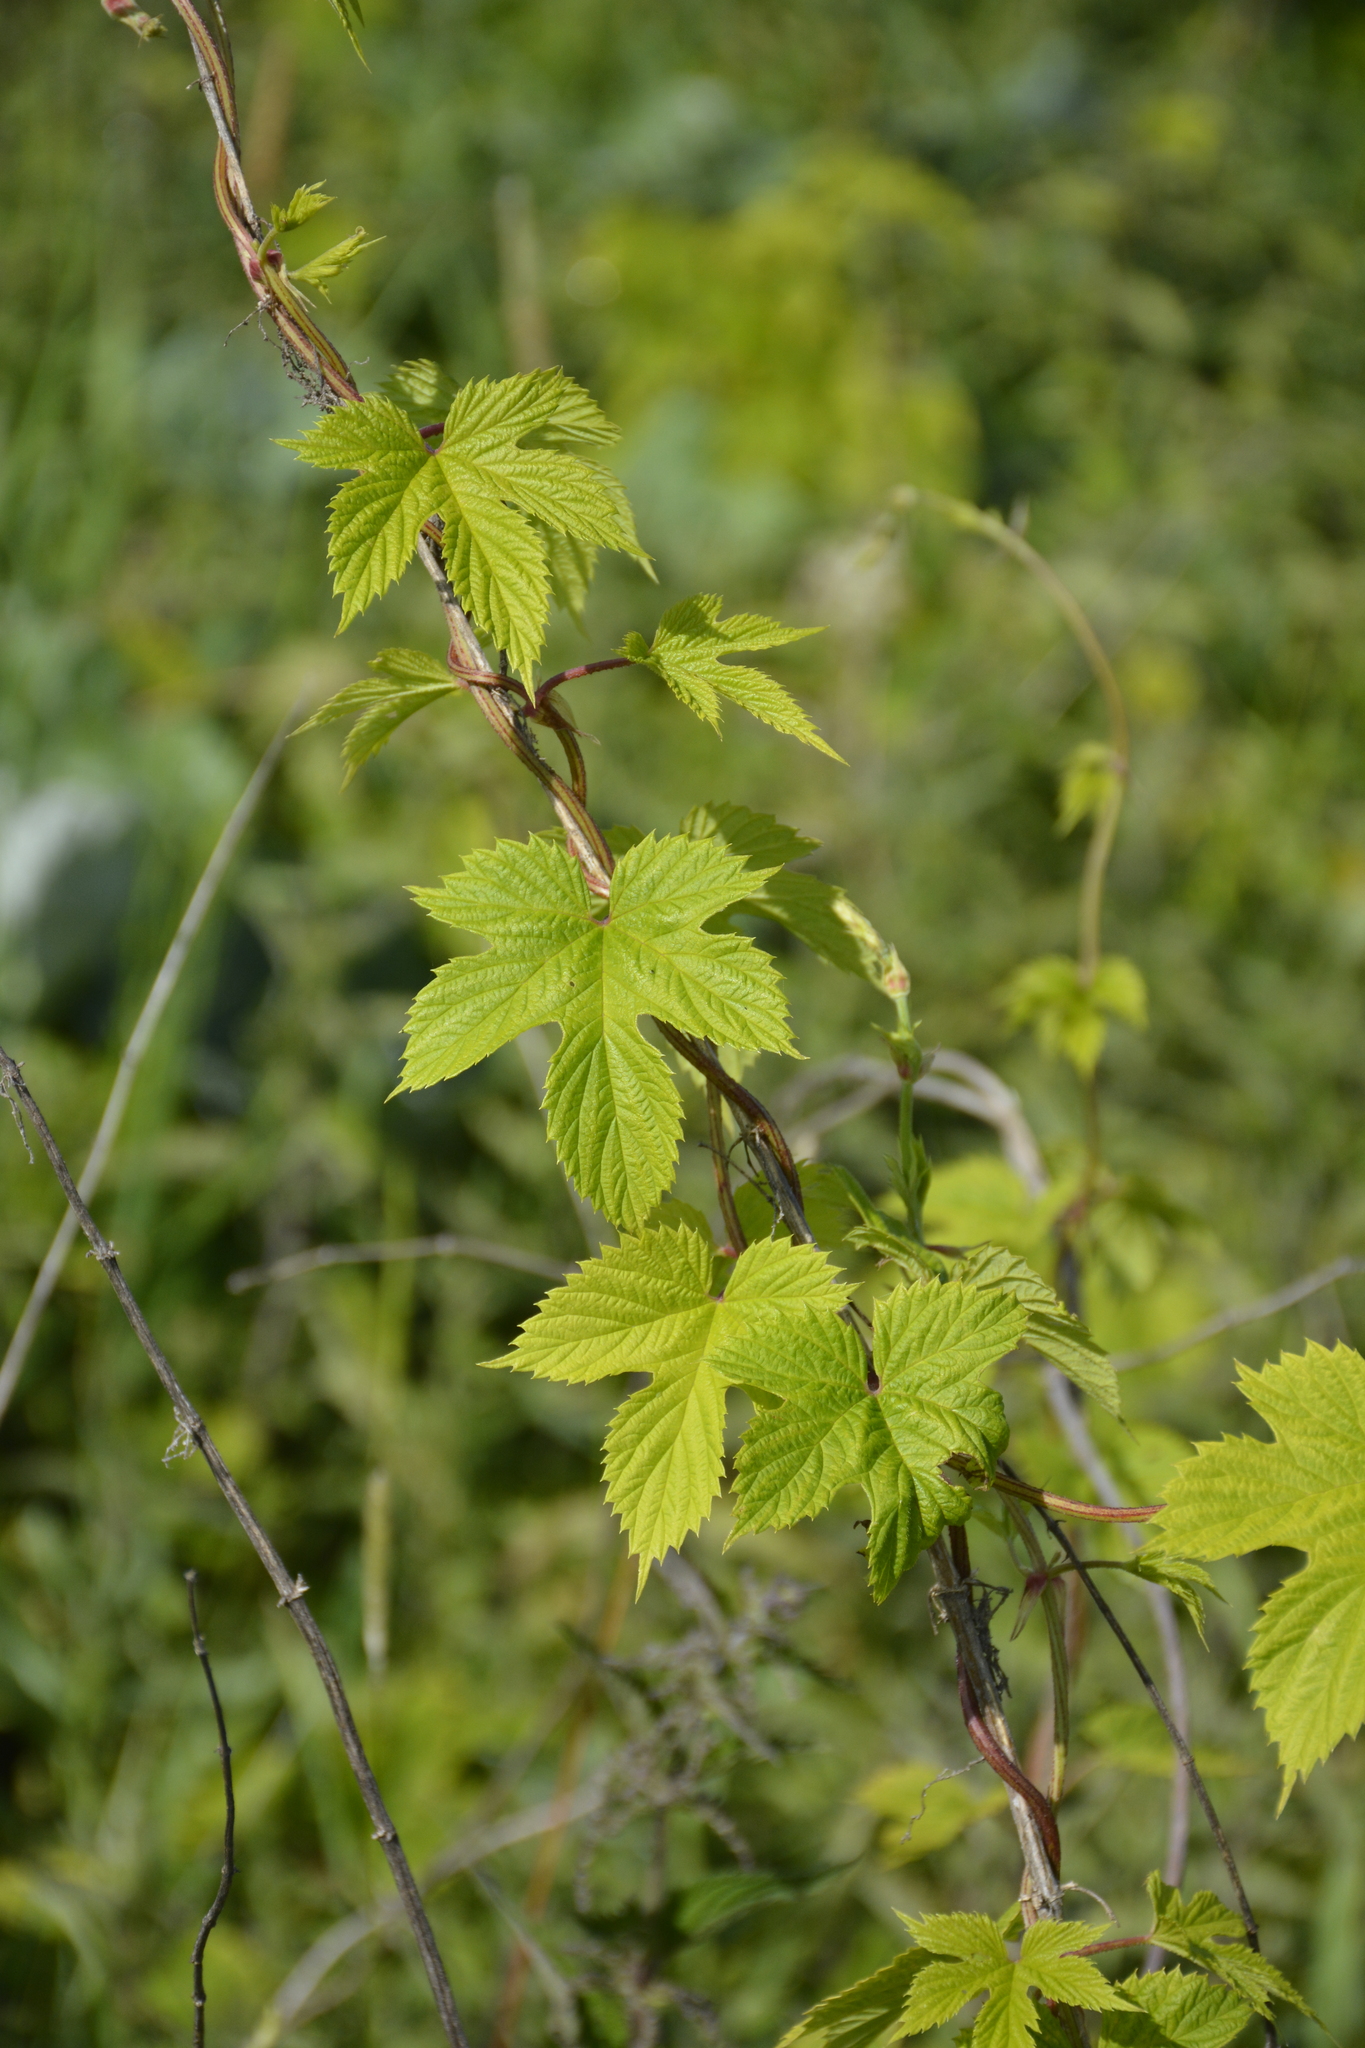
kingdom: Plantae
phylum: Tracheophyta
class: Magnoliopsida
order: Rosales
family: Cannabaceae
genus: Humulus
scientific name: Humulus lupulus
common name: Hop
